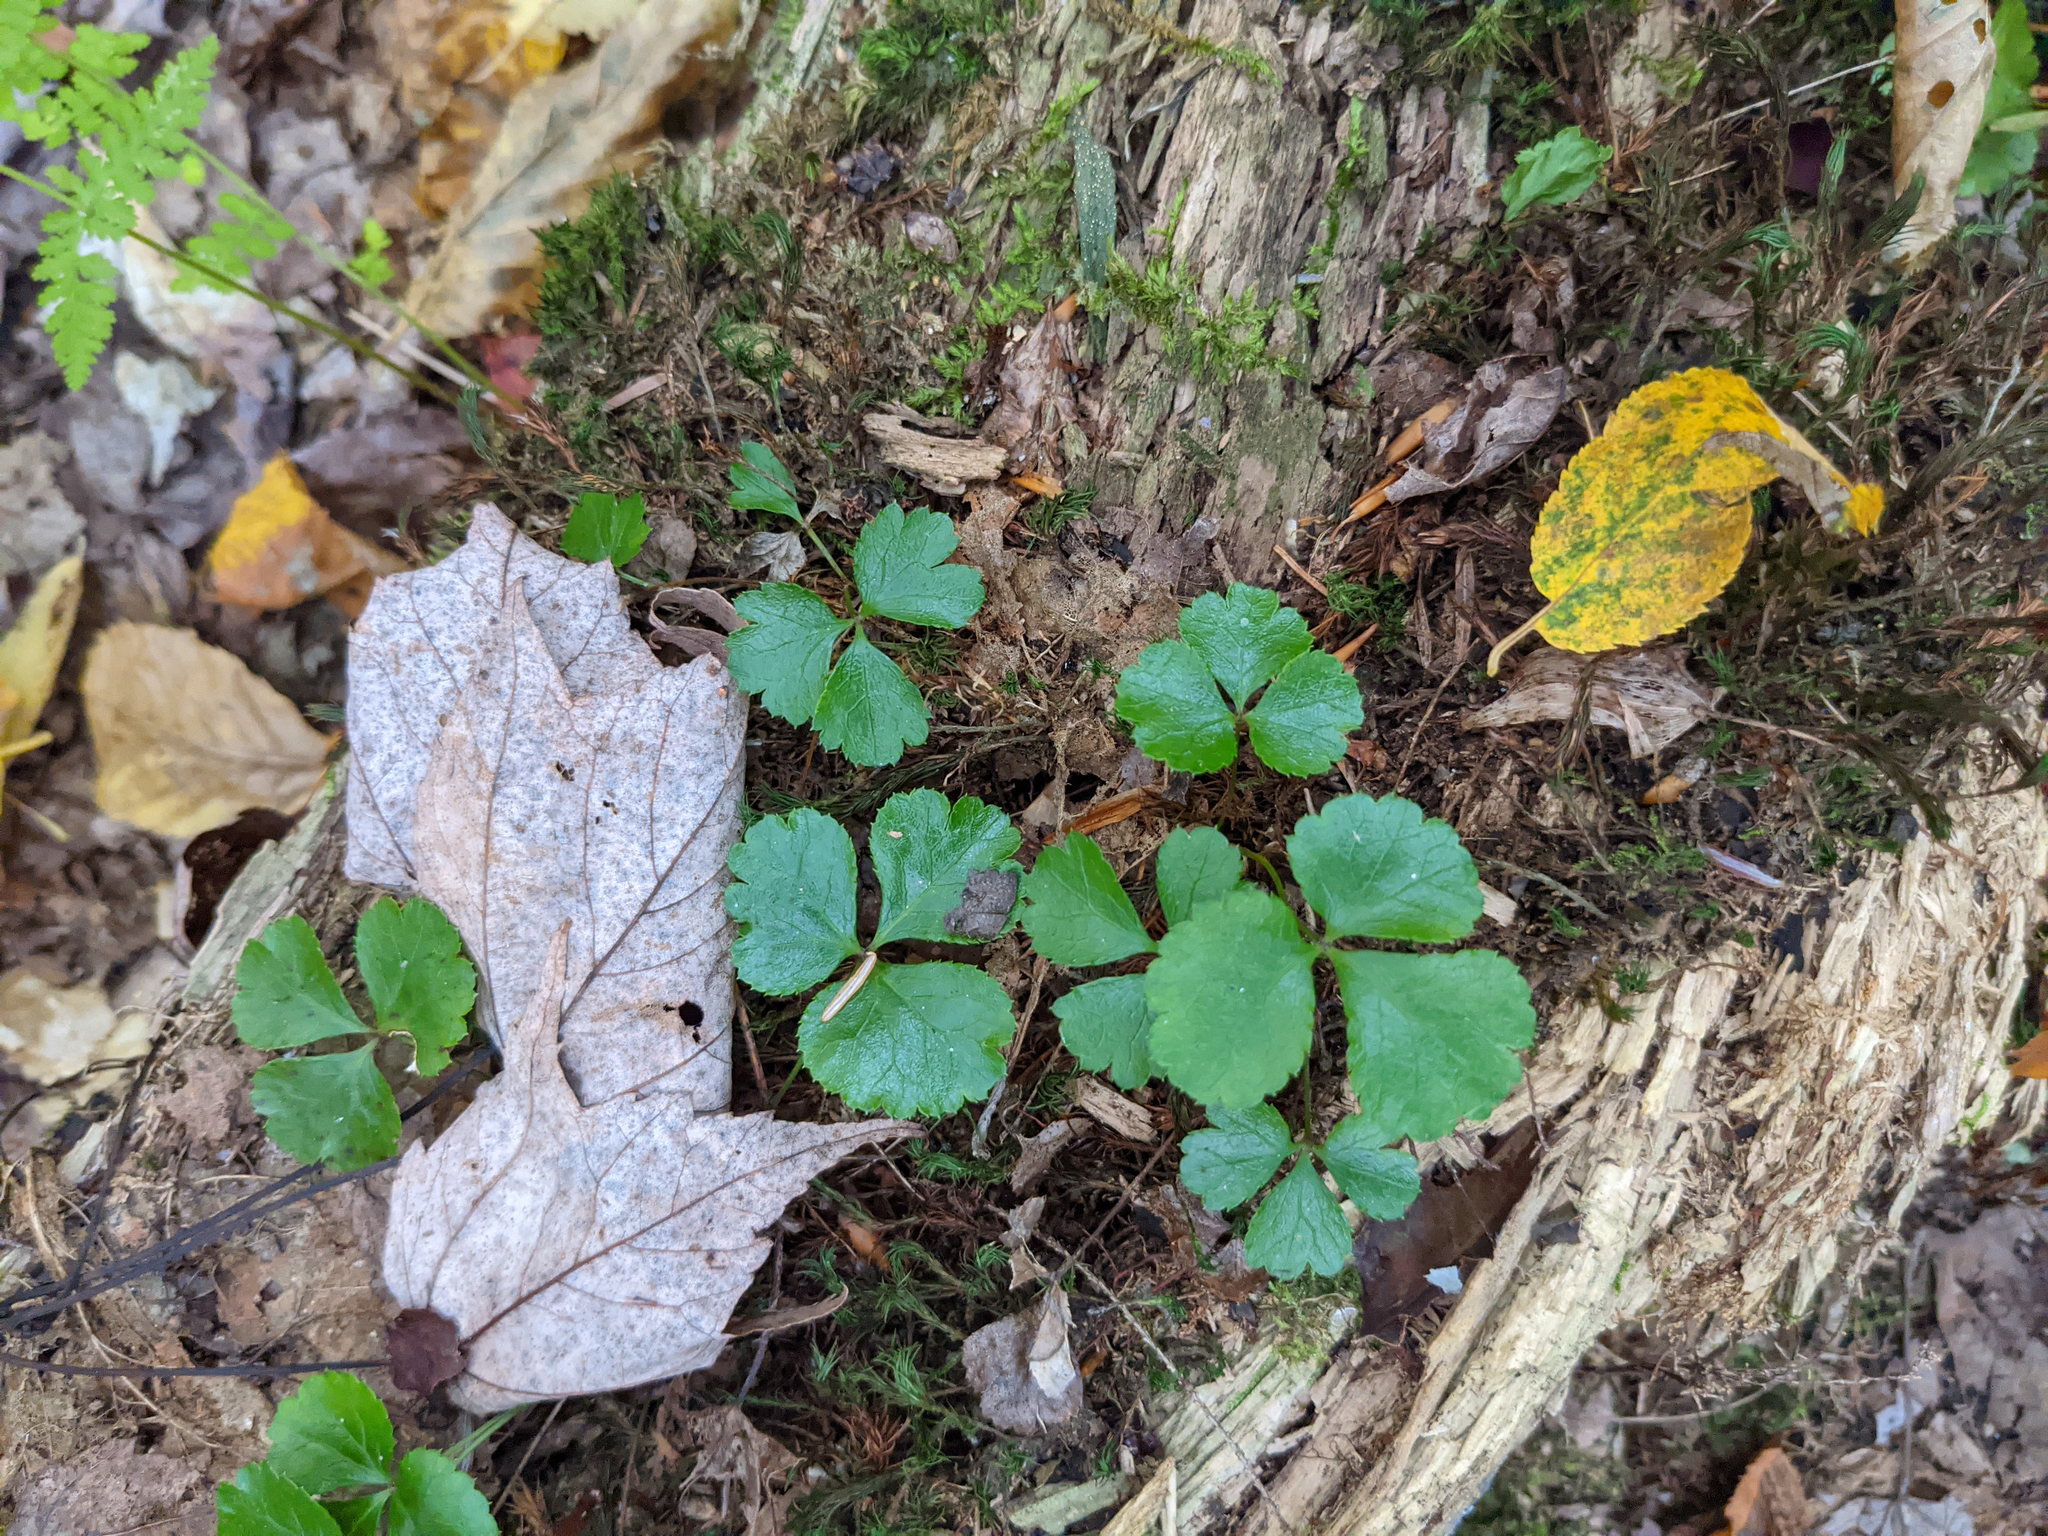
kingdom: Plantae
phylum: Tracheophyta
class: Magnoliopsida
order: Ranunculales
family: Ranunculaceae
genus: Coptis
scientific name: Coptis trifolia
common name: Canker-root
